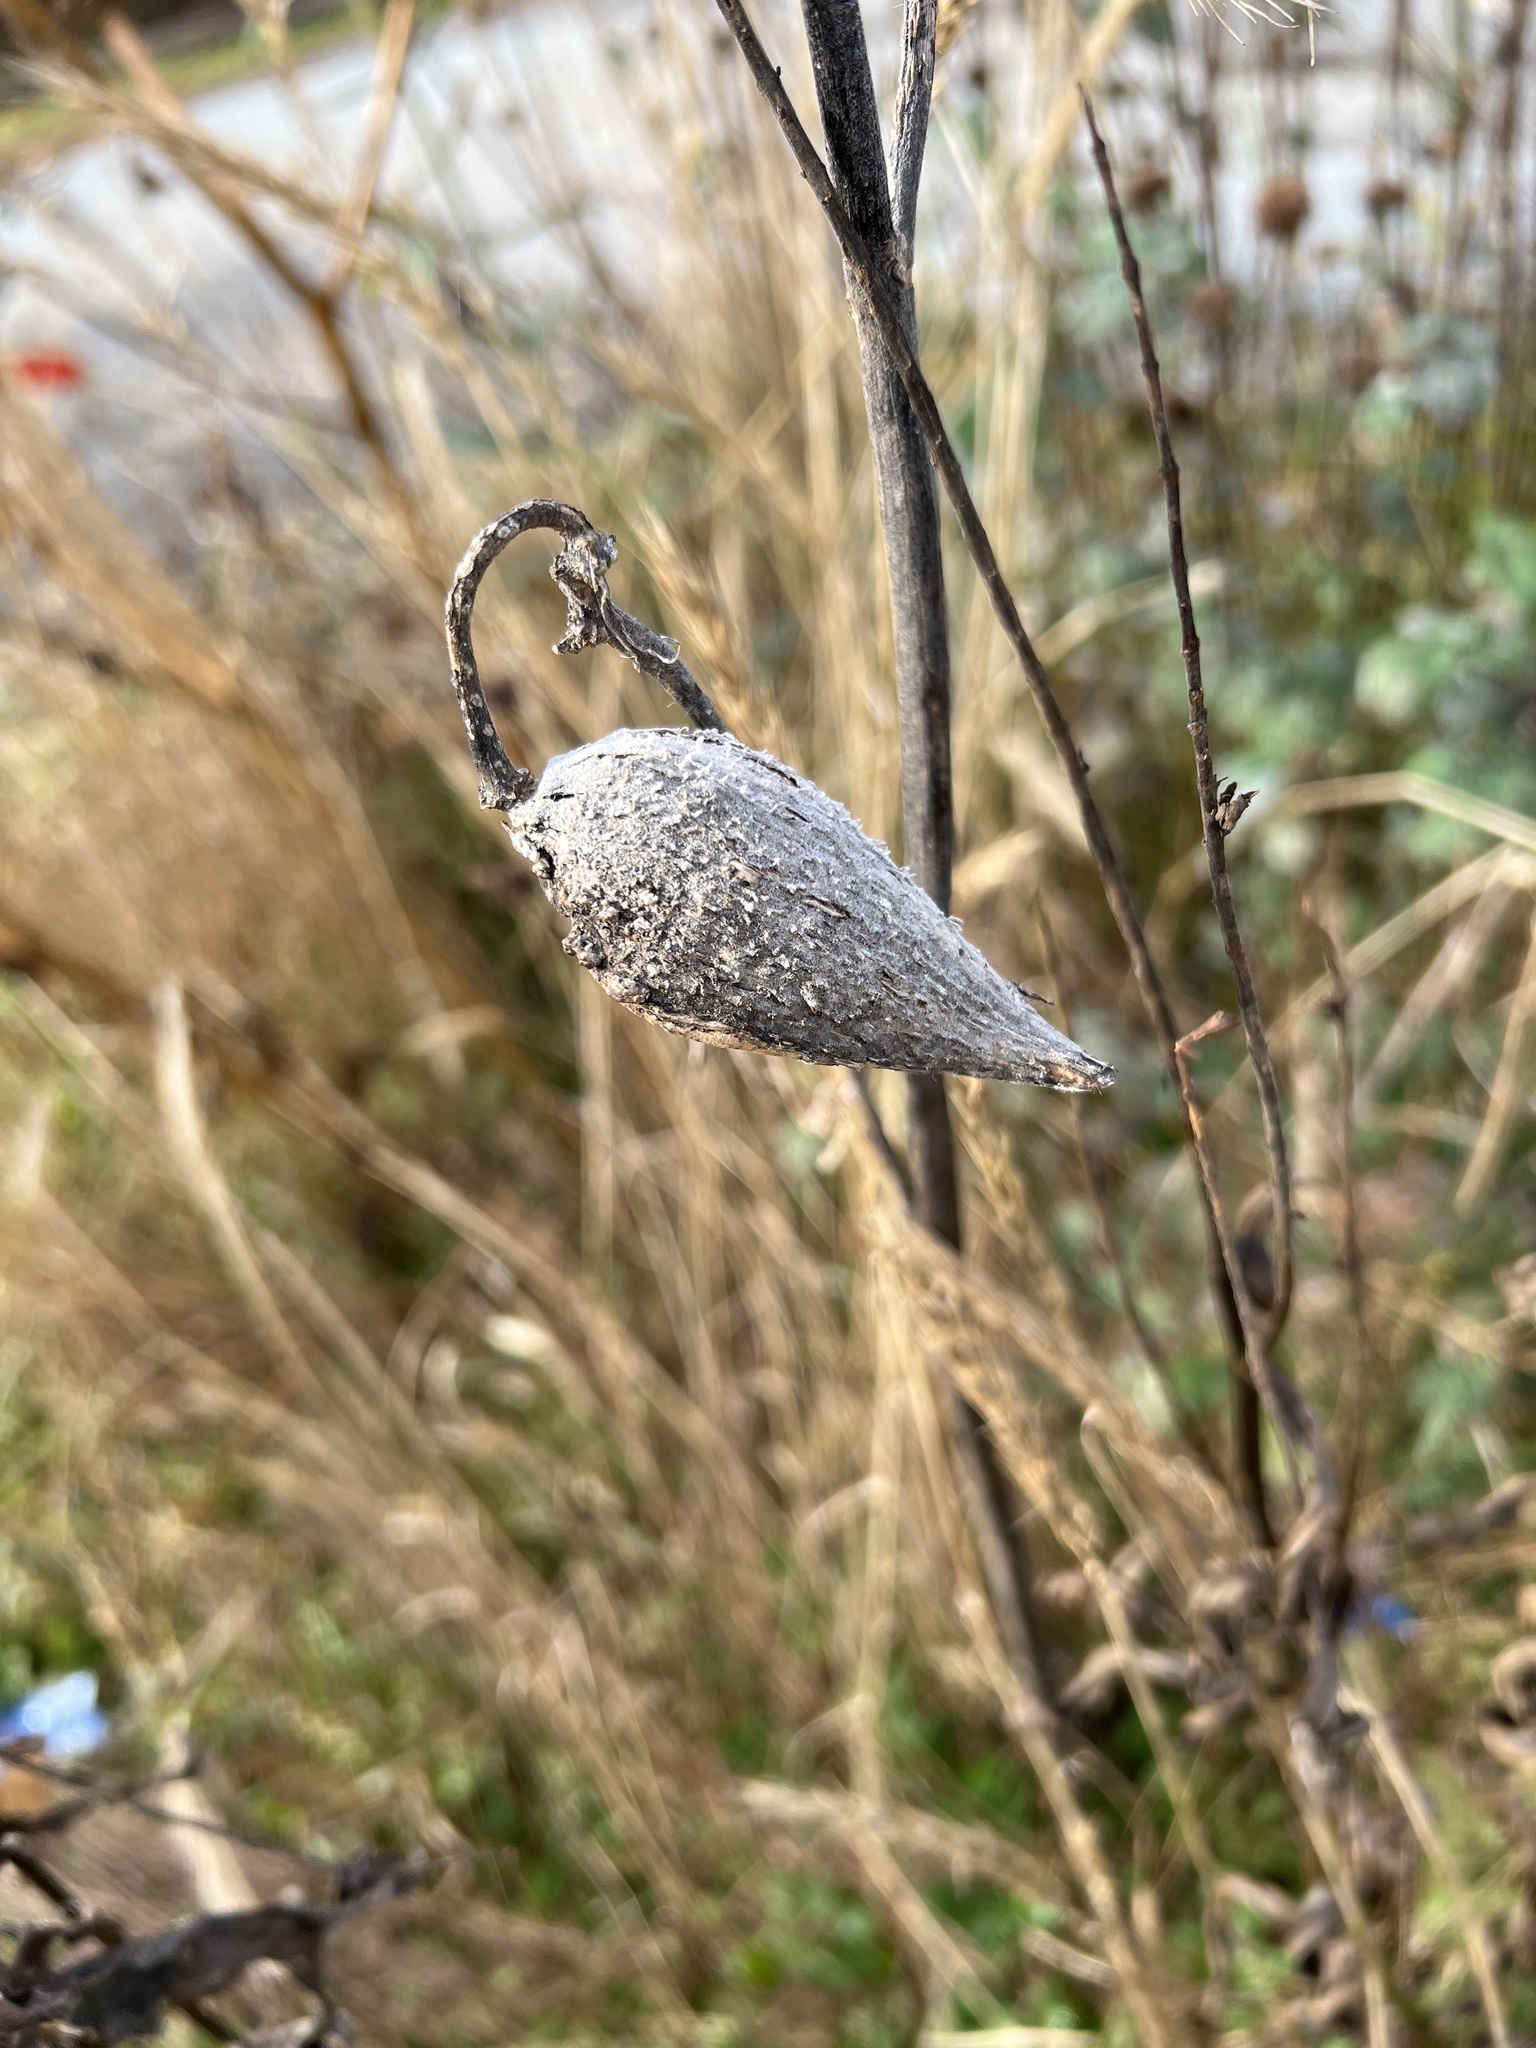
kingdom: Plantae
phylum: Tracheophyta
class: Magnoliopsida
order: Gentianales
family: Apocynaceae
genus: Asclepias
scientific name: Asclepias syriaca
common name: Common milkweed
